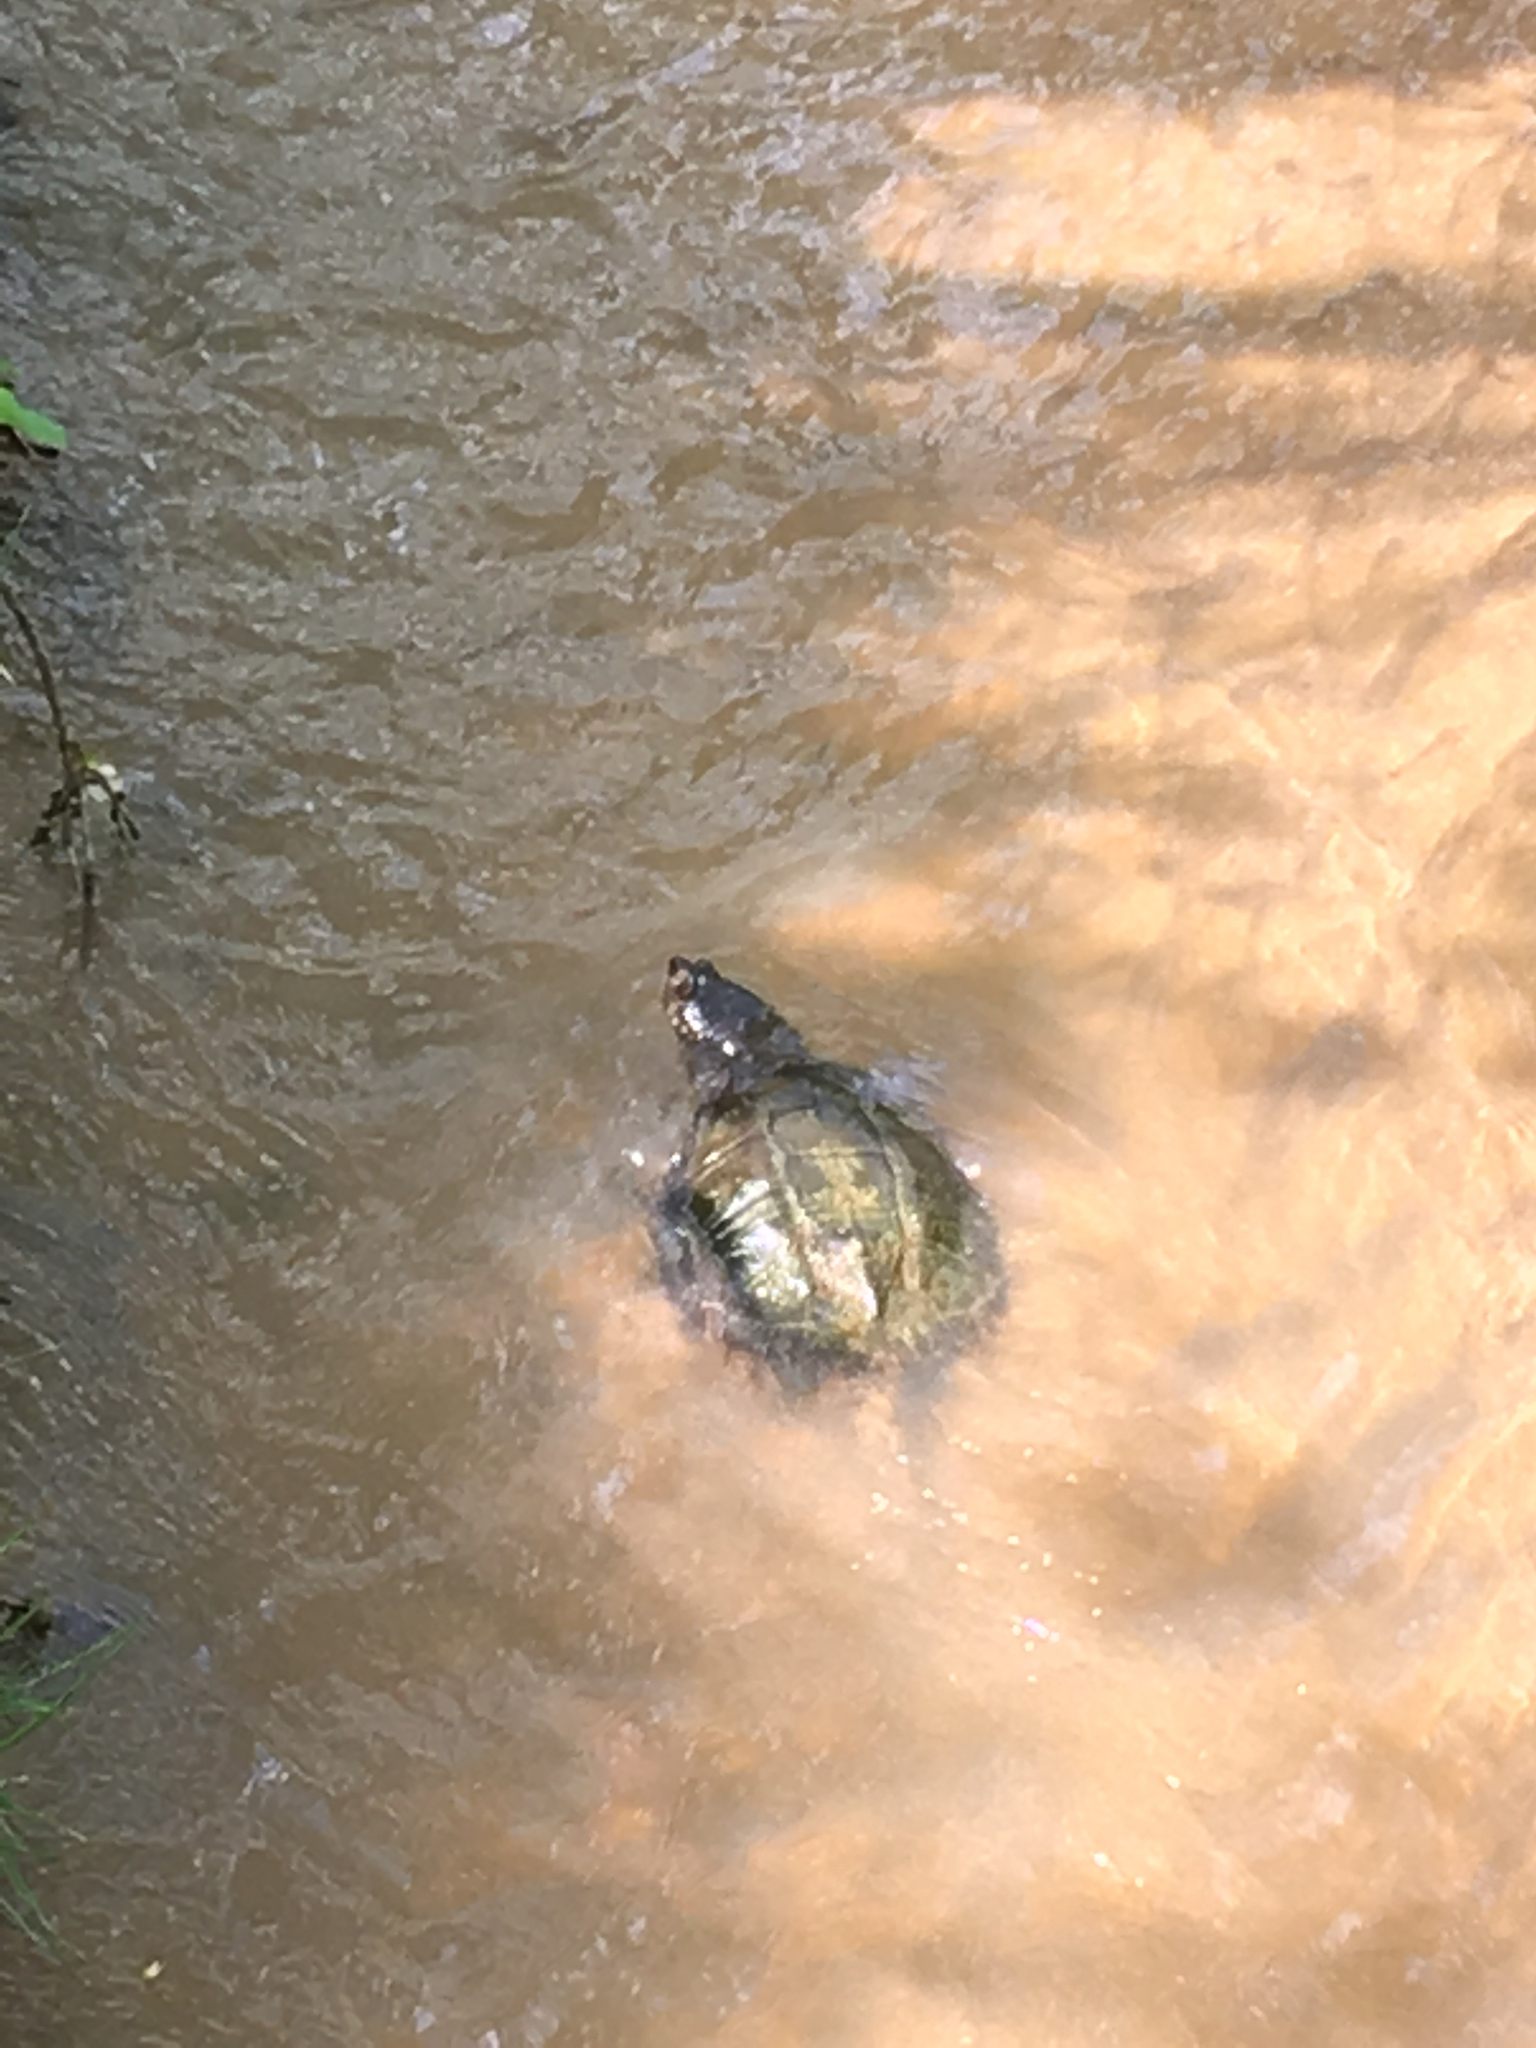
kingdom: Animalia
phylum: Chordata
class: Testudines
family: Chelydridae
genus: Chelydra
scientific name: Chelydra serpentina
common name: Common snapping turtle
